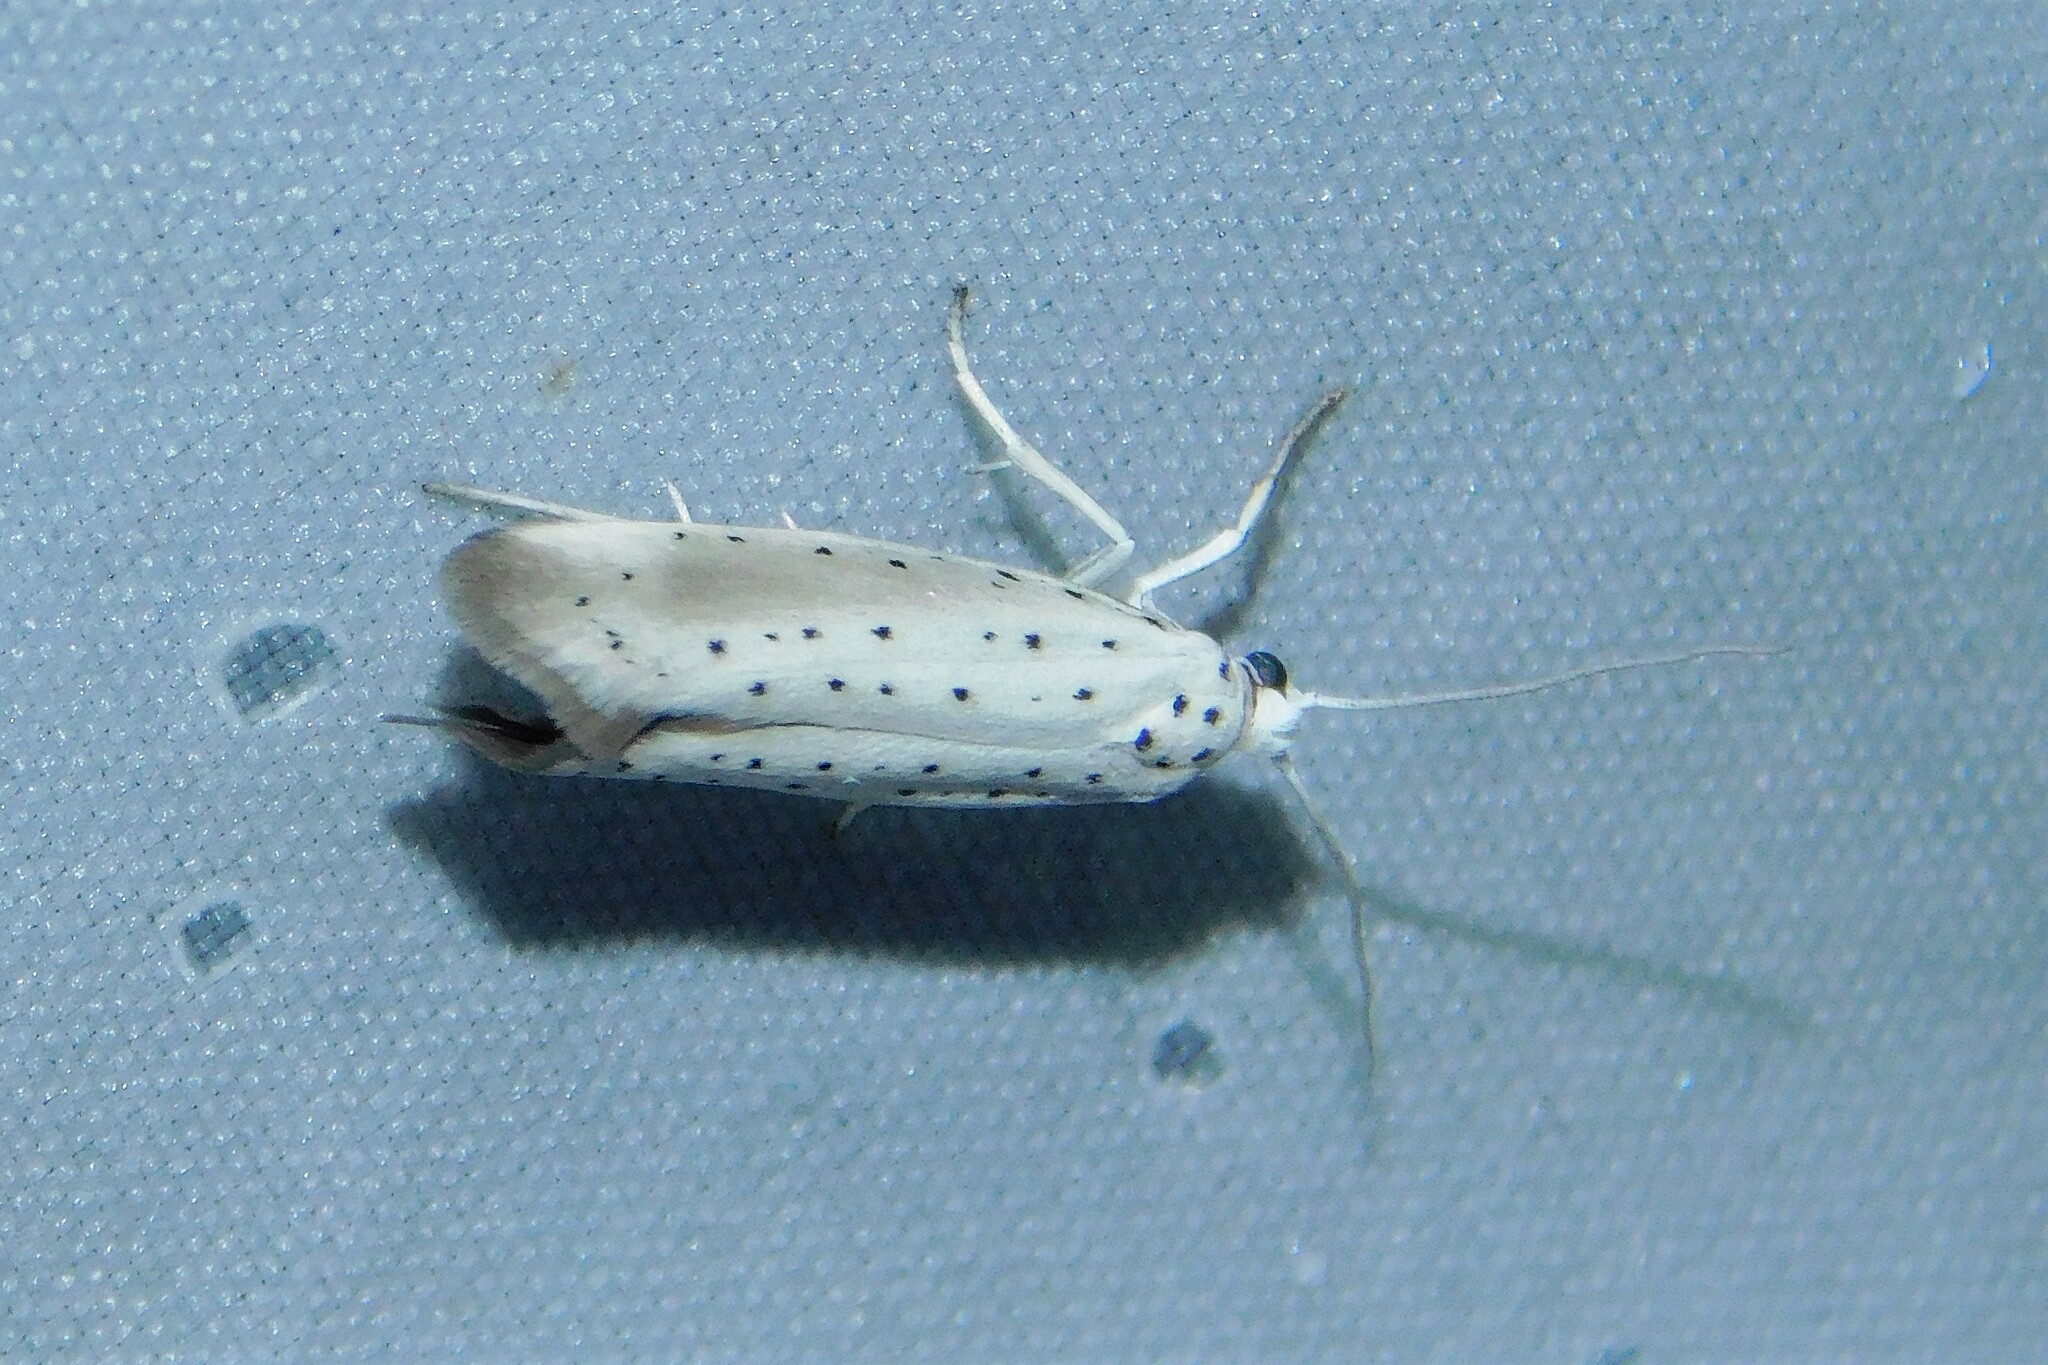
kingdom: Animalia
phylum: Arthropoda
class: Insecta
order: Lepidoptera
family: Yponomeutidae
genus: Yponomeuta
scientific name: Yponomeuta padella
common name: Orchard ermine
